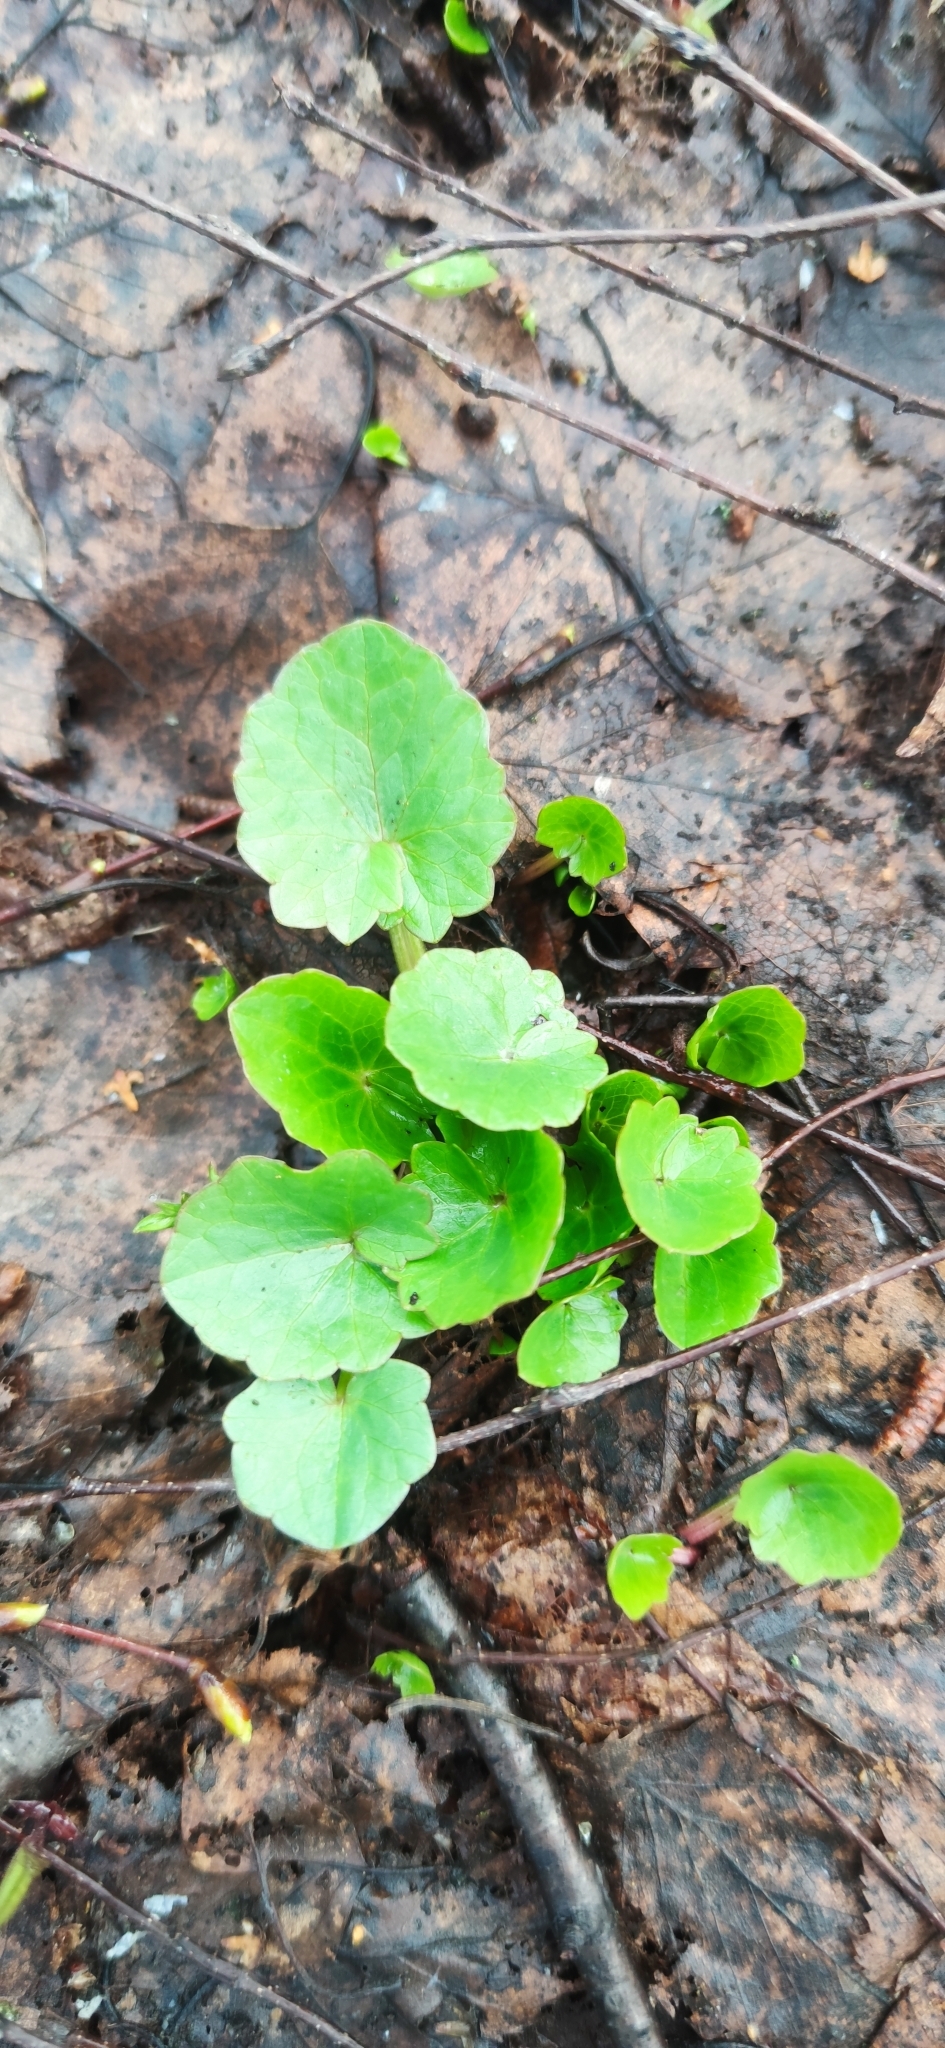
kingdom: Plantae
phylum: Tracheophyta
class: Magnoliopsida
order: Ranunculales
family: Ranunculaceae
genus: Ficaria
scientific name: Ficaria verna
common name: Lesser celandine
